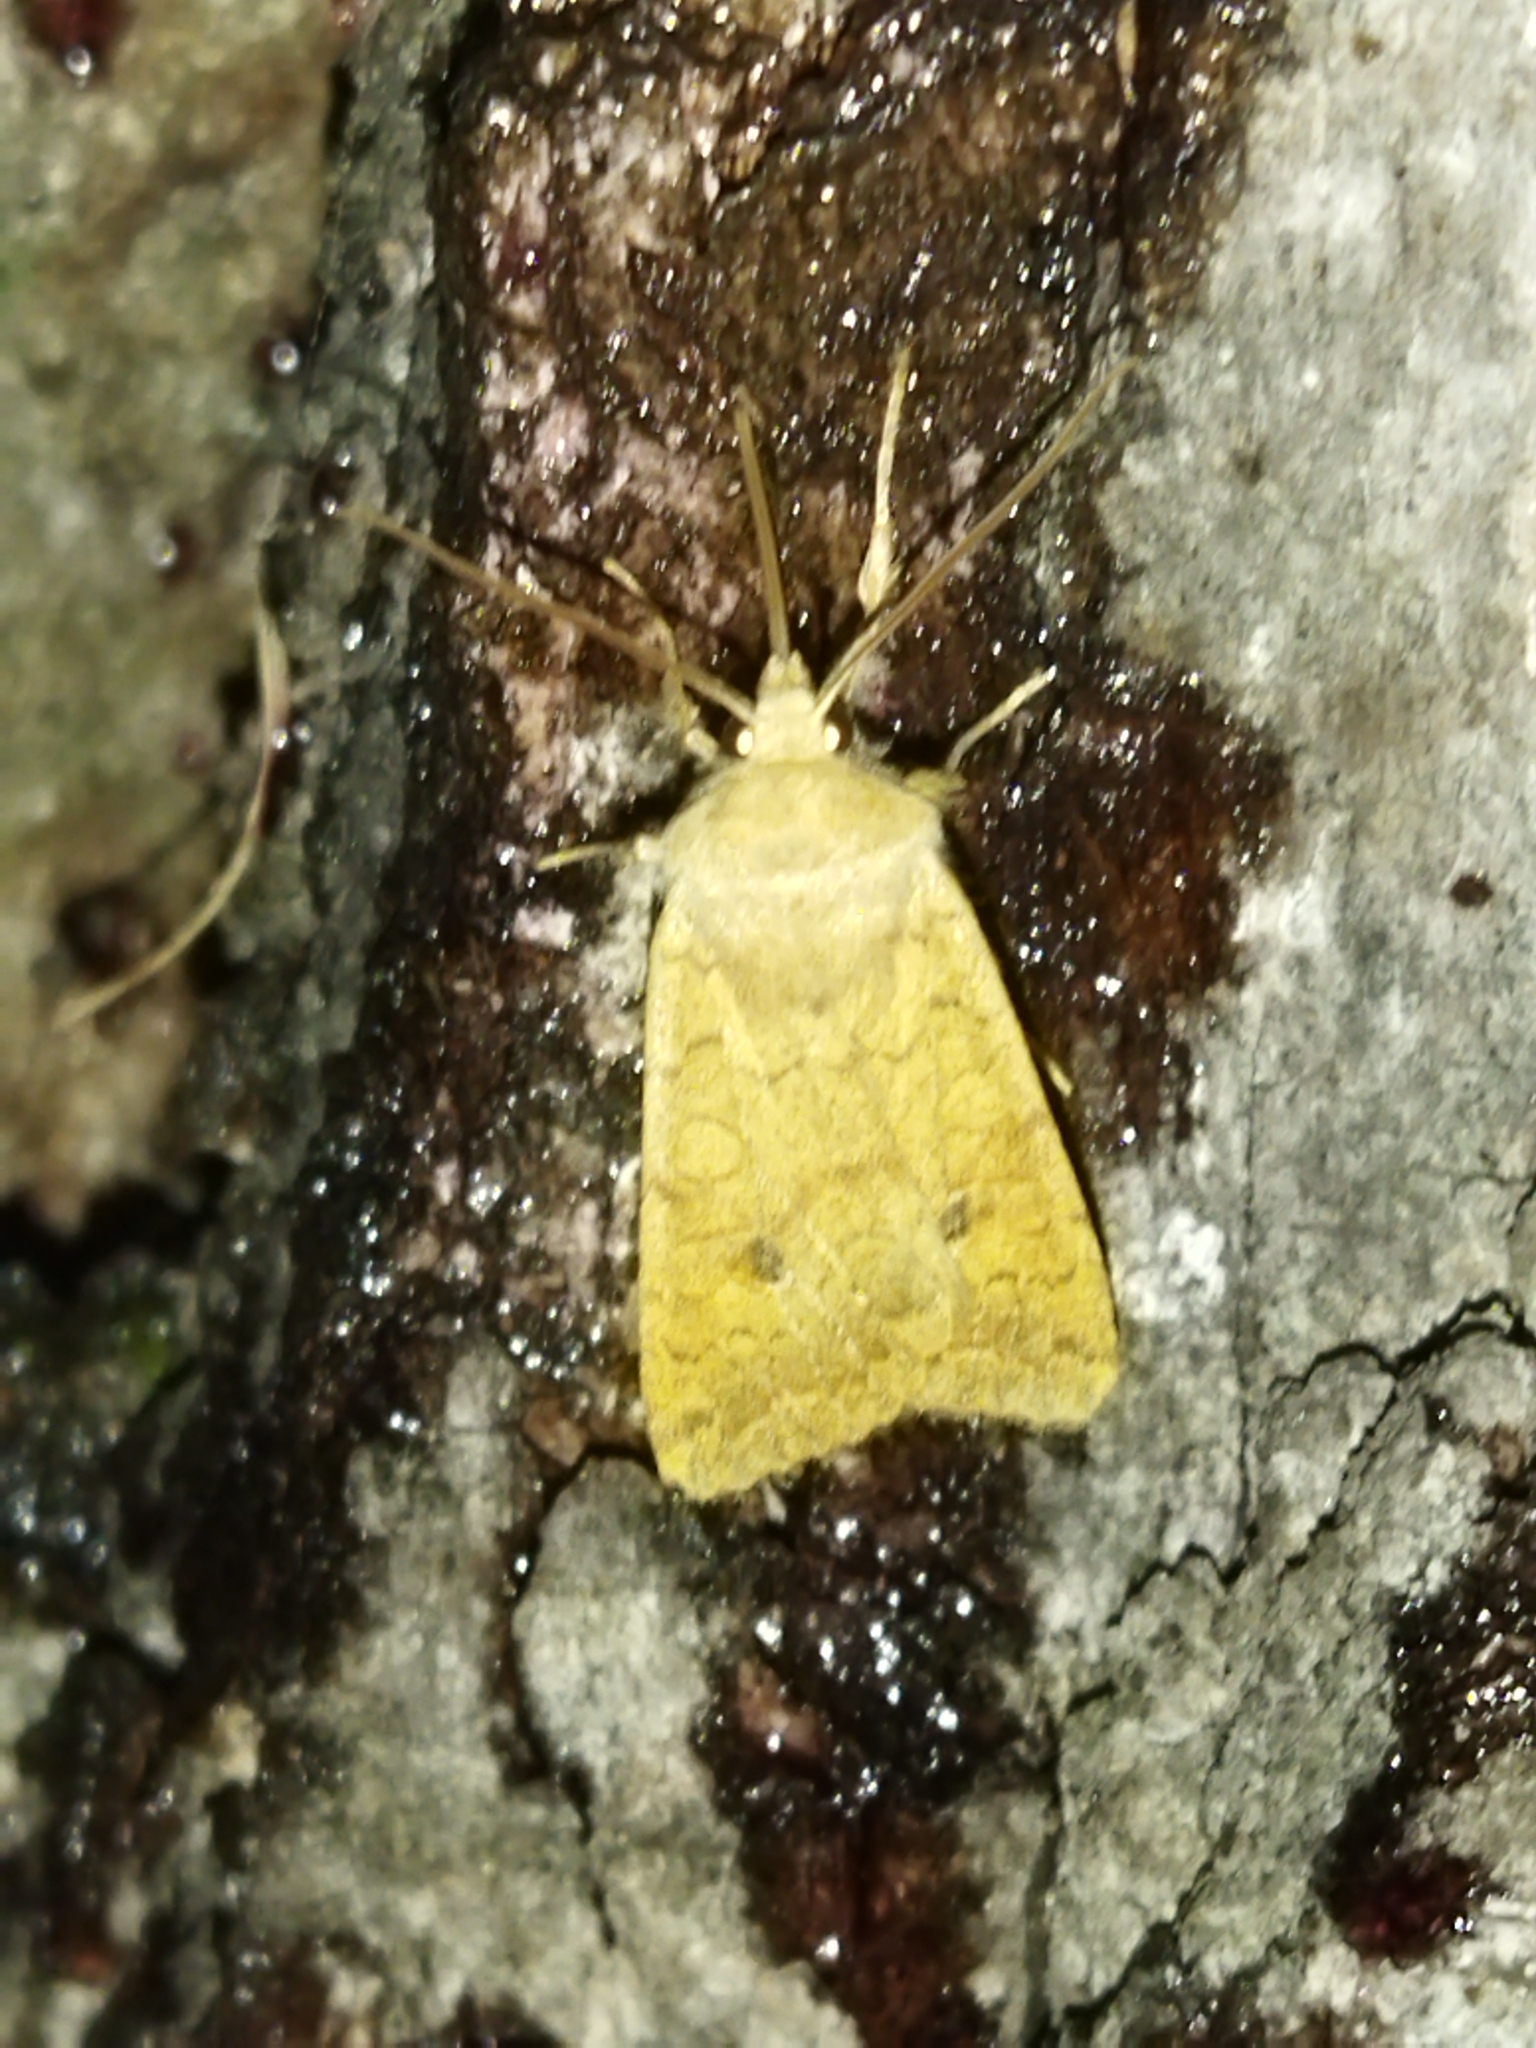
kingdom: Animalia
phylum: Arthropoda
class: Insecta
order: Lepidoptera
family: Noctuidae
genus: Sunira
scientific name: Sunira circellaris
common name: Brick
